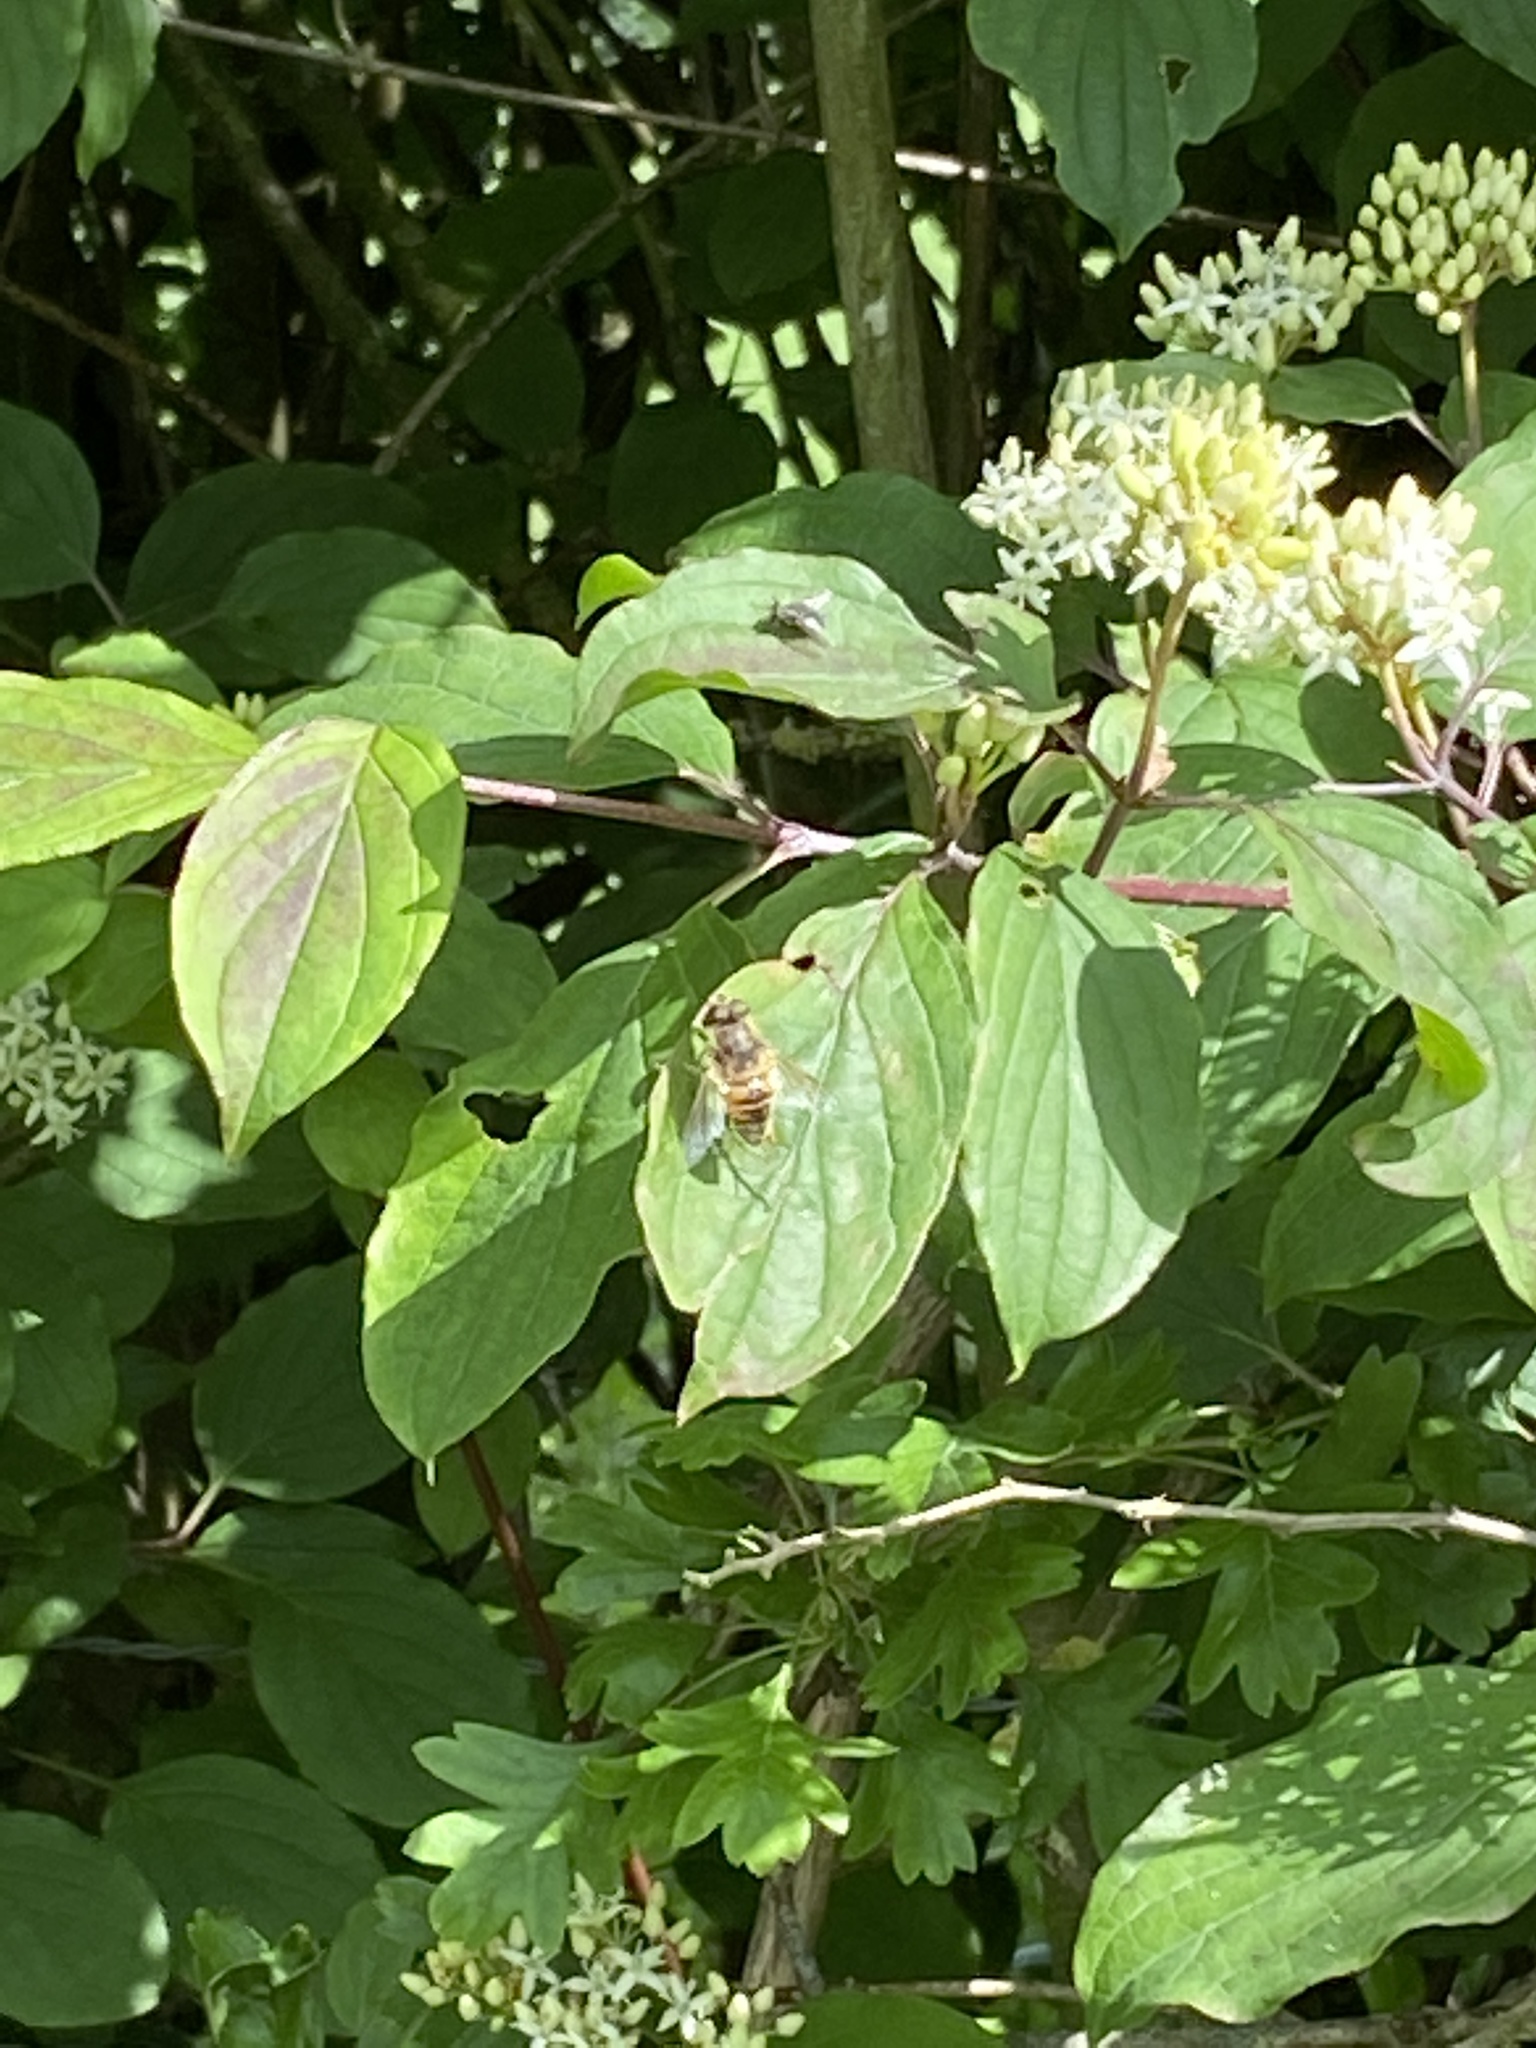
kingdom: Animalia
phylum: Arthropoda
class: Insecta
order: Diptera
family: Syrphidae
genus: Eristalis
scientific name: Eristalis tenax
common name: Drone fly
